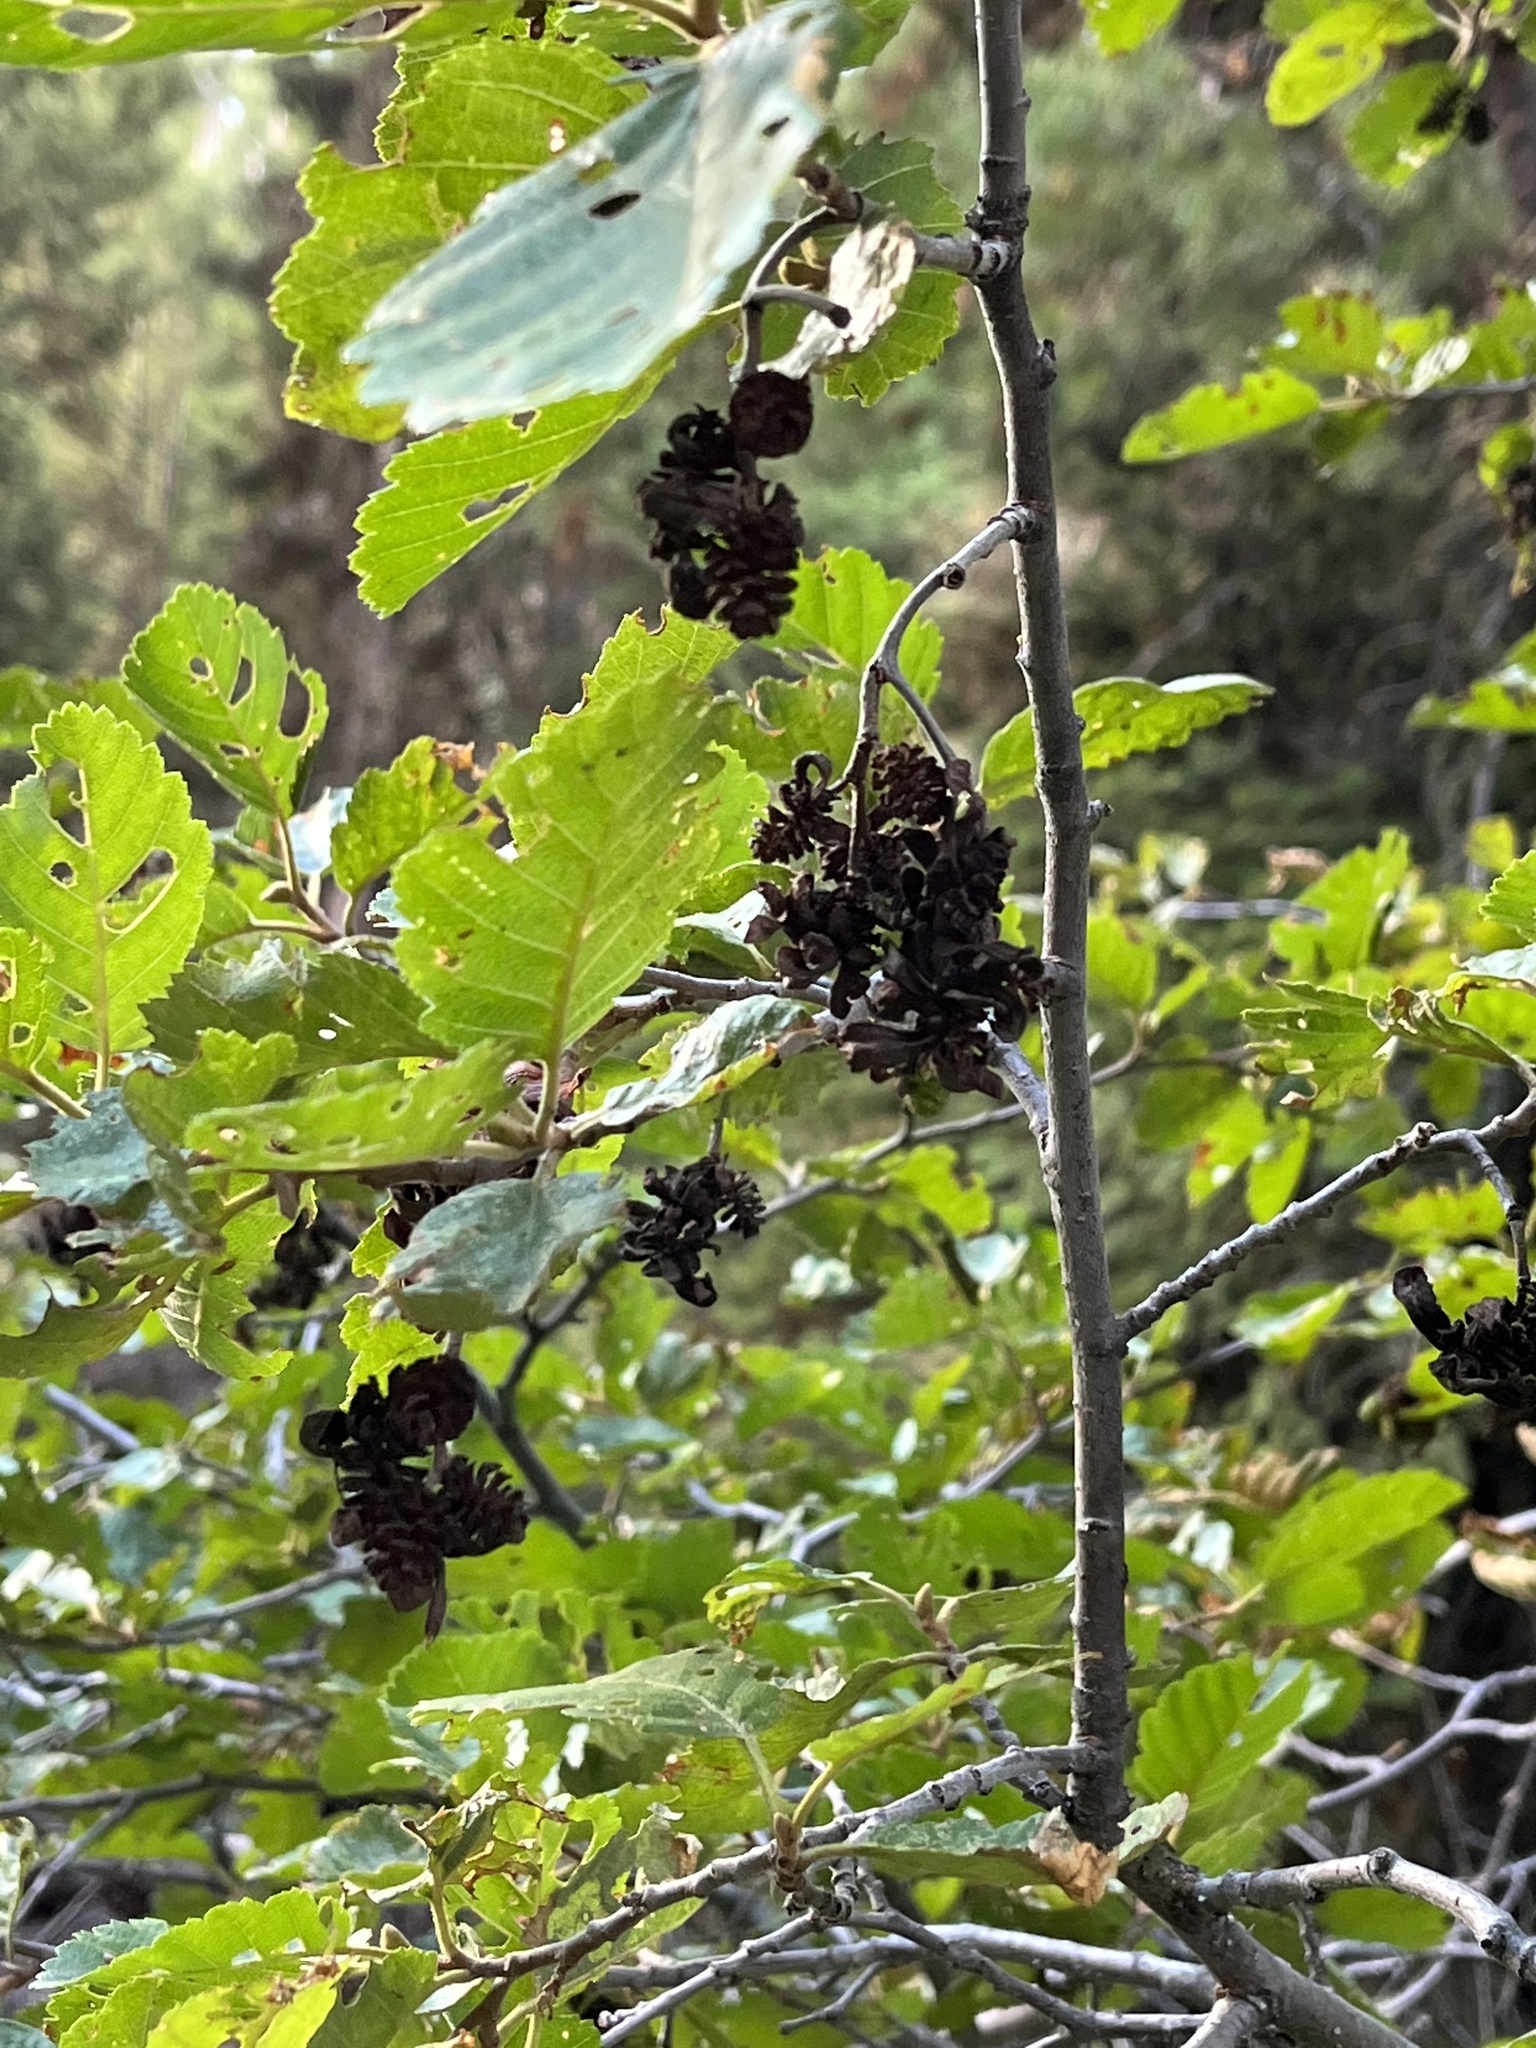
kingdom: Plantae
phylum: Tracheophyta
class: Magnoliopsida
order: Fagales
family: Betulaceae
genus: Alnus
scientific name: Alnus incana
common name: Grey alder
